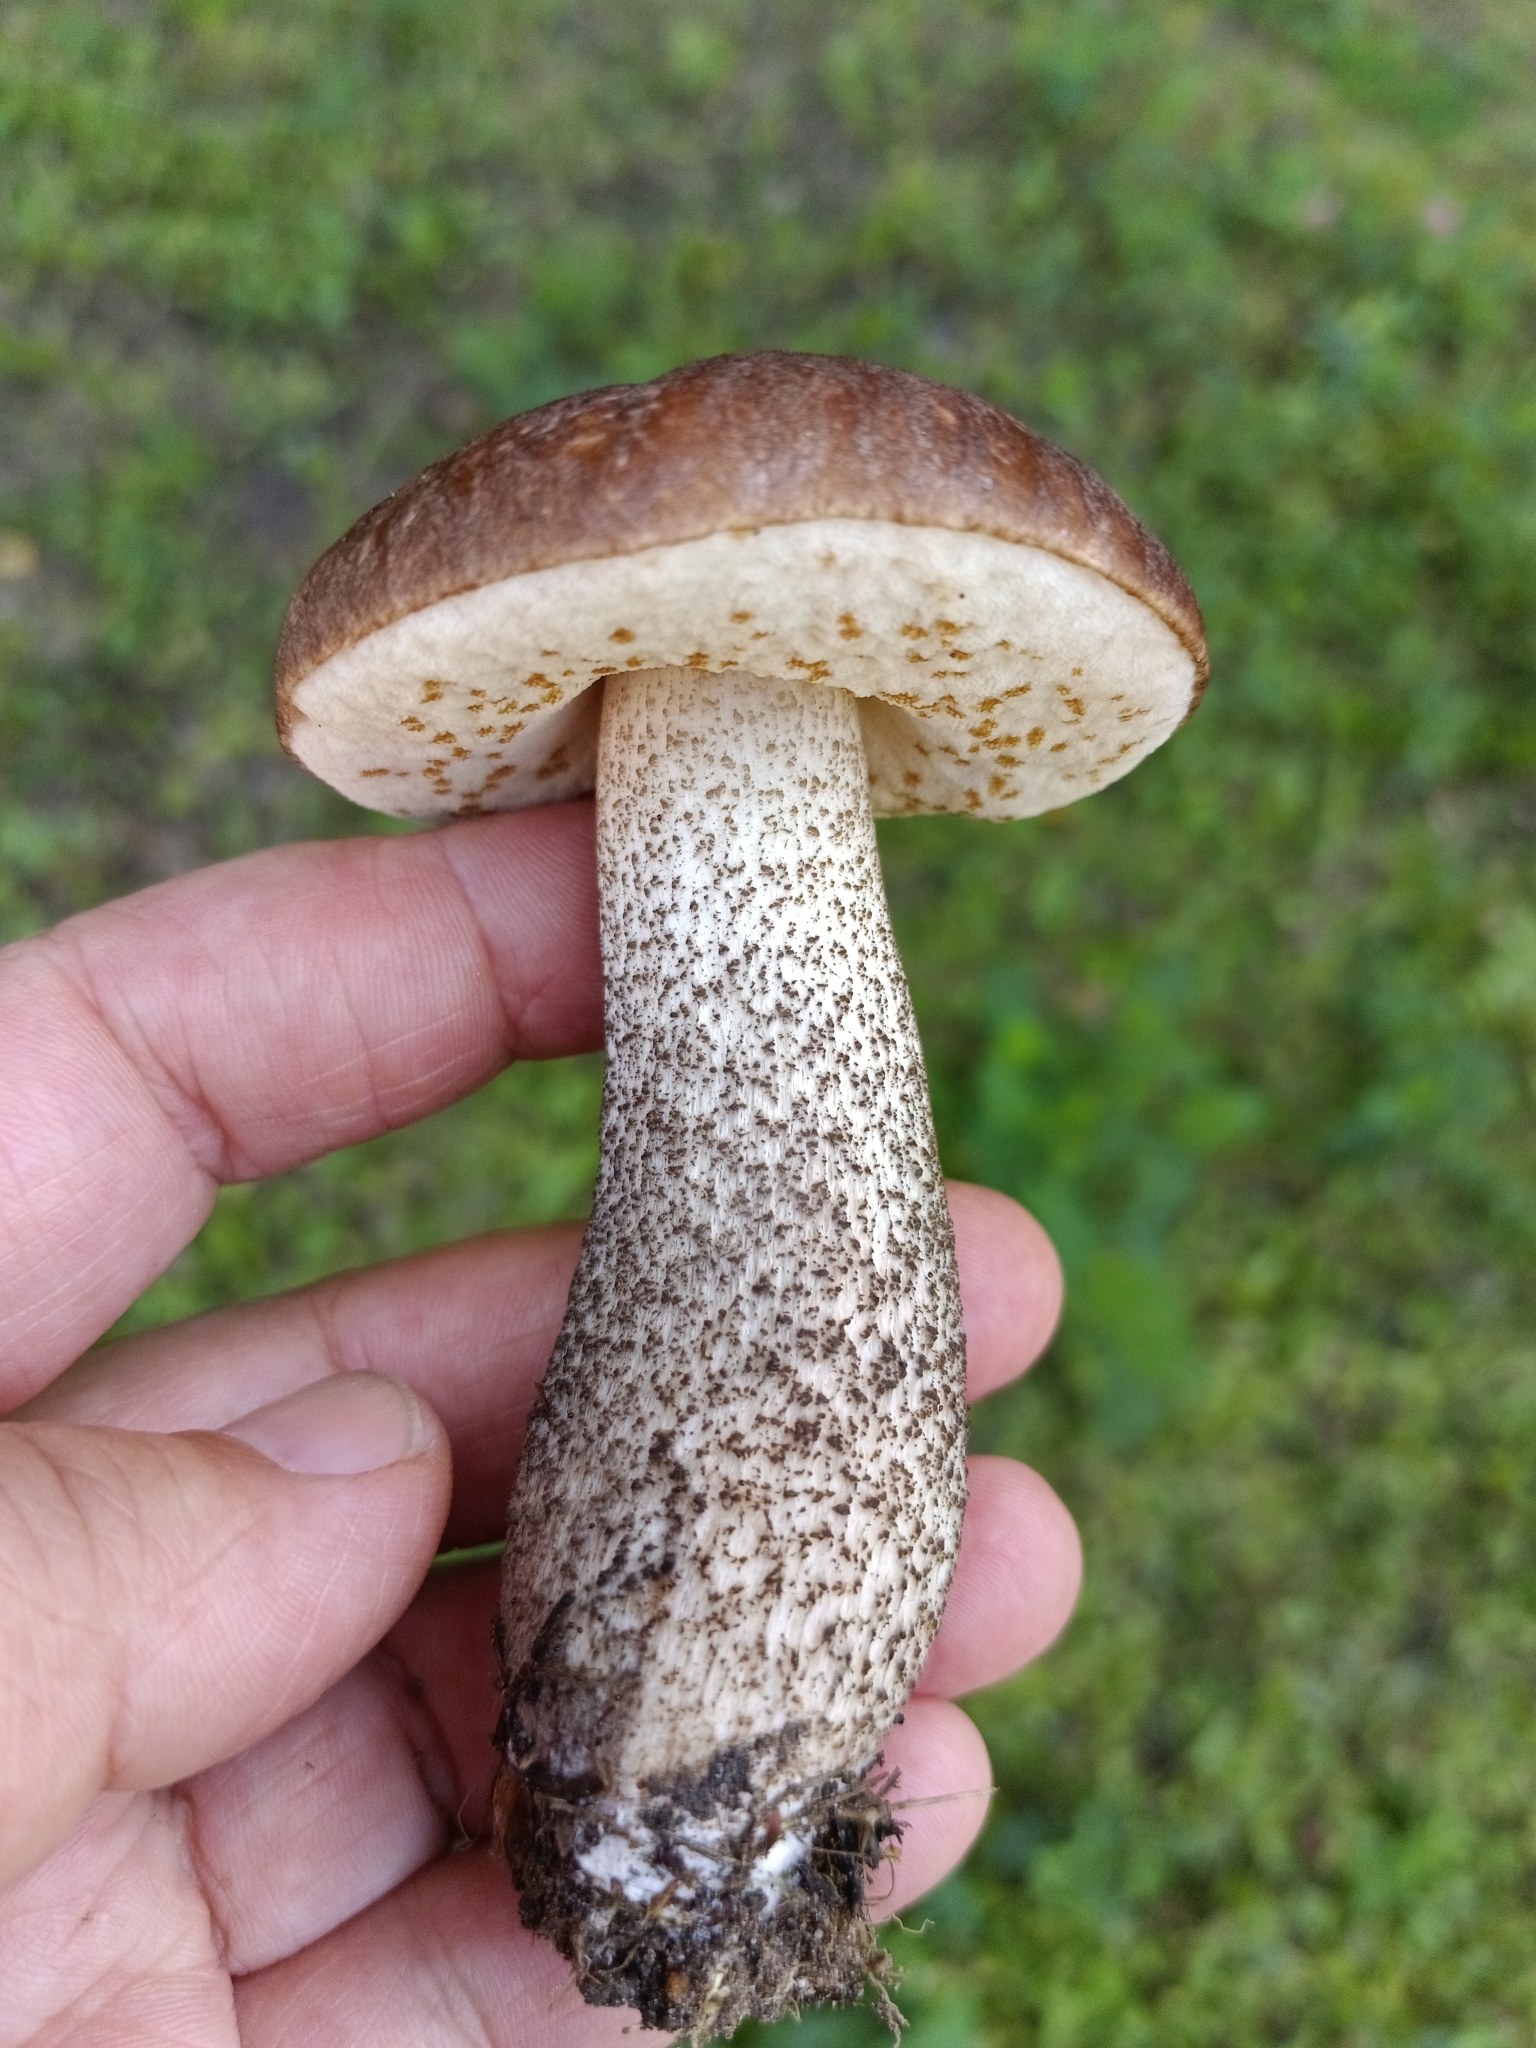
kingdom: Fungi
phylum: Basidiomycota
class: Agaricomycetes
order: Boletales
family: Boletaceae
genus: Leccinum
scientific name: Leccinum scabrum
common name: Blushing bolete
